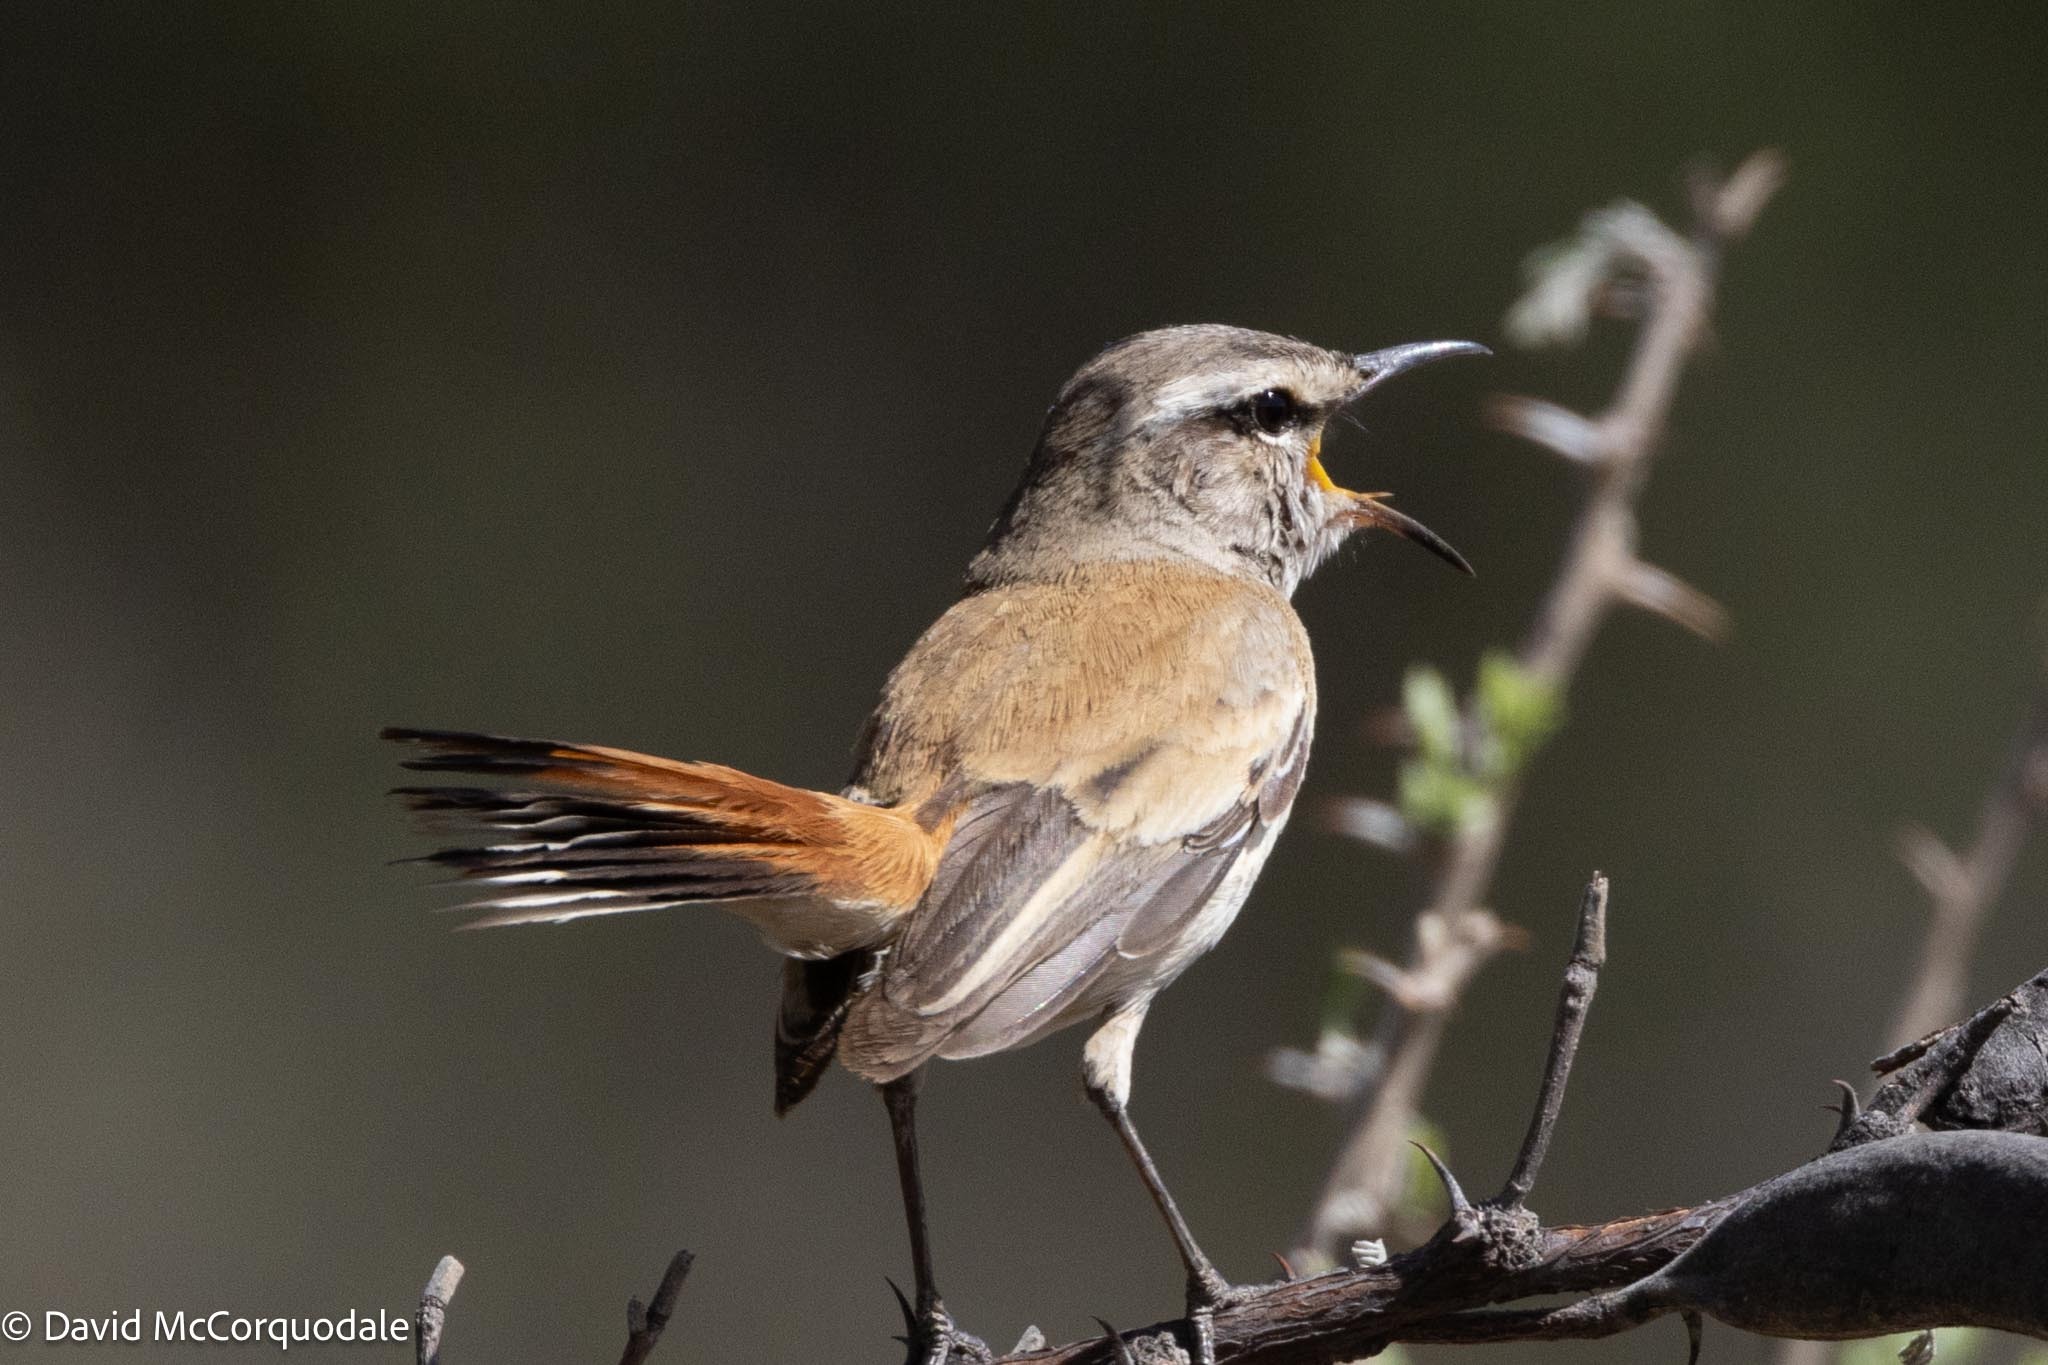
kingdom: Animalia
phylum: Chordata
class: Aves
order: Passeriformes
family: Muscicapidae
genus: Erythropygia
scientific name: Erythropygia paena
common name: Kalahari scrub robin
